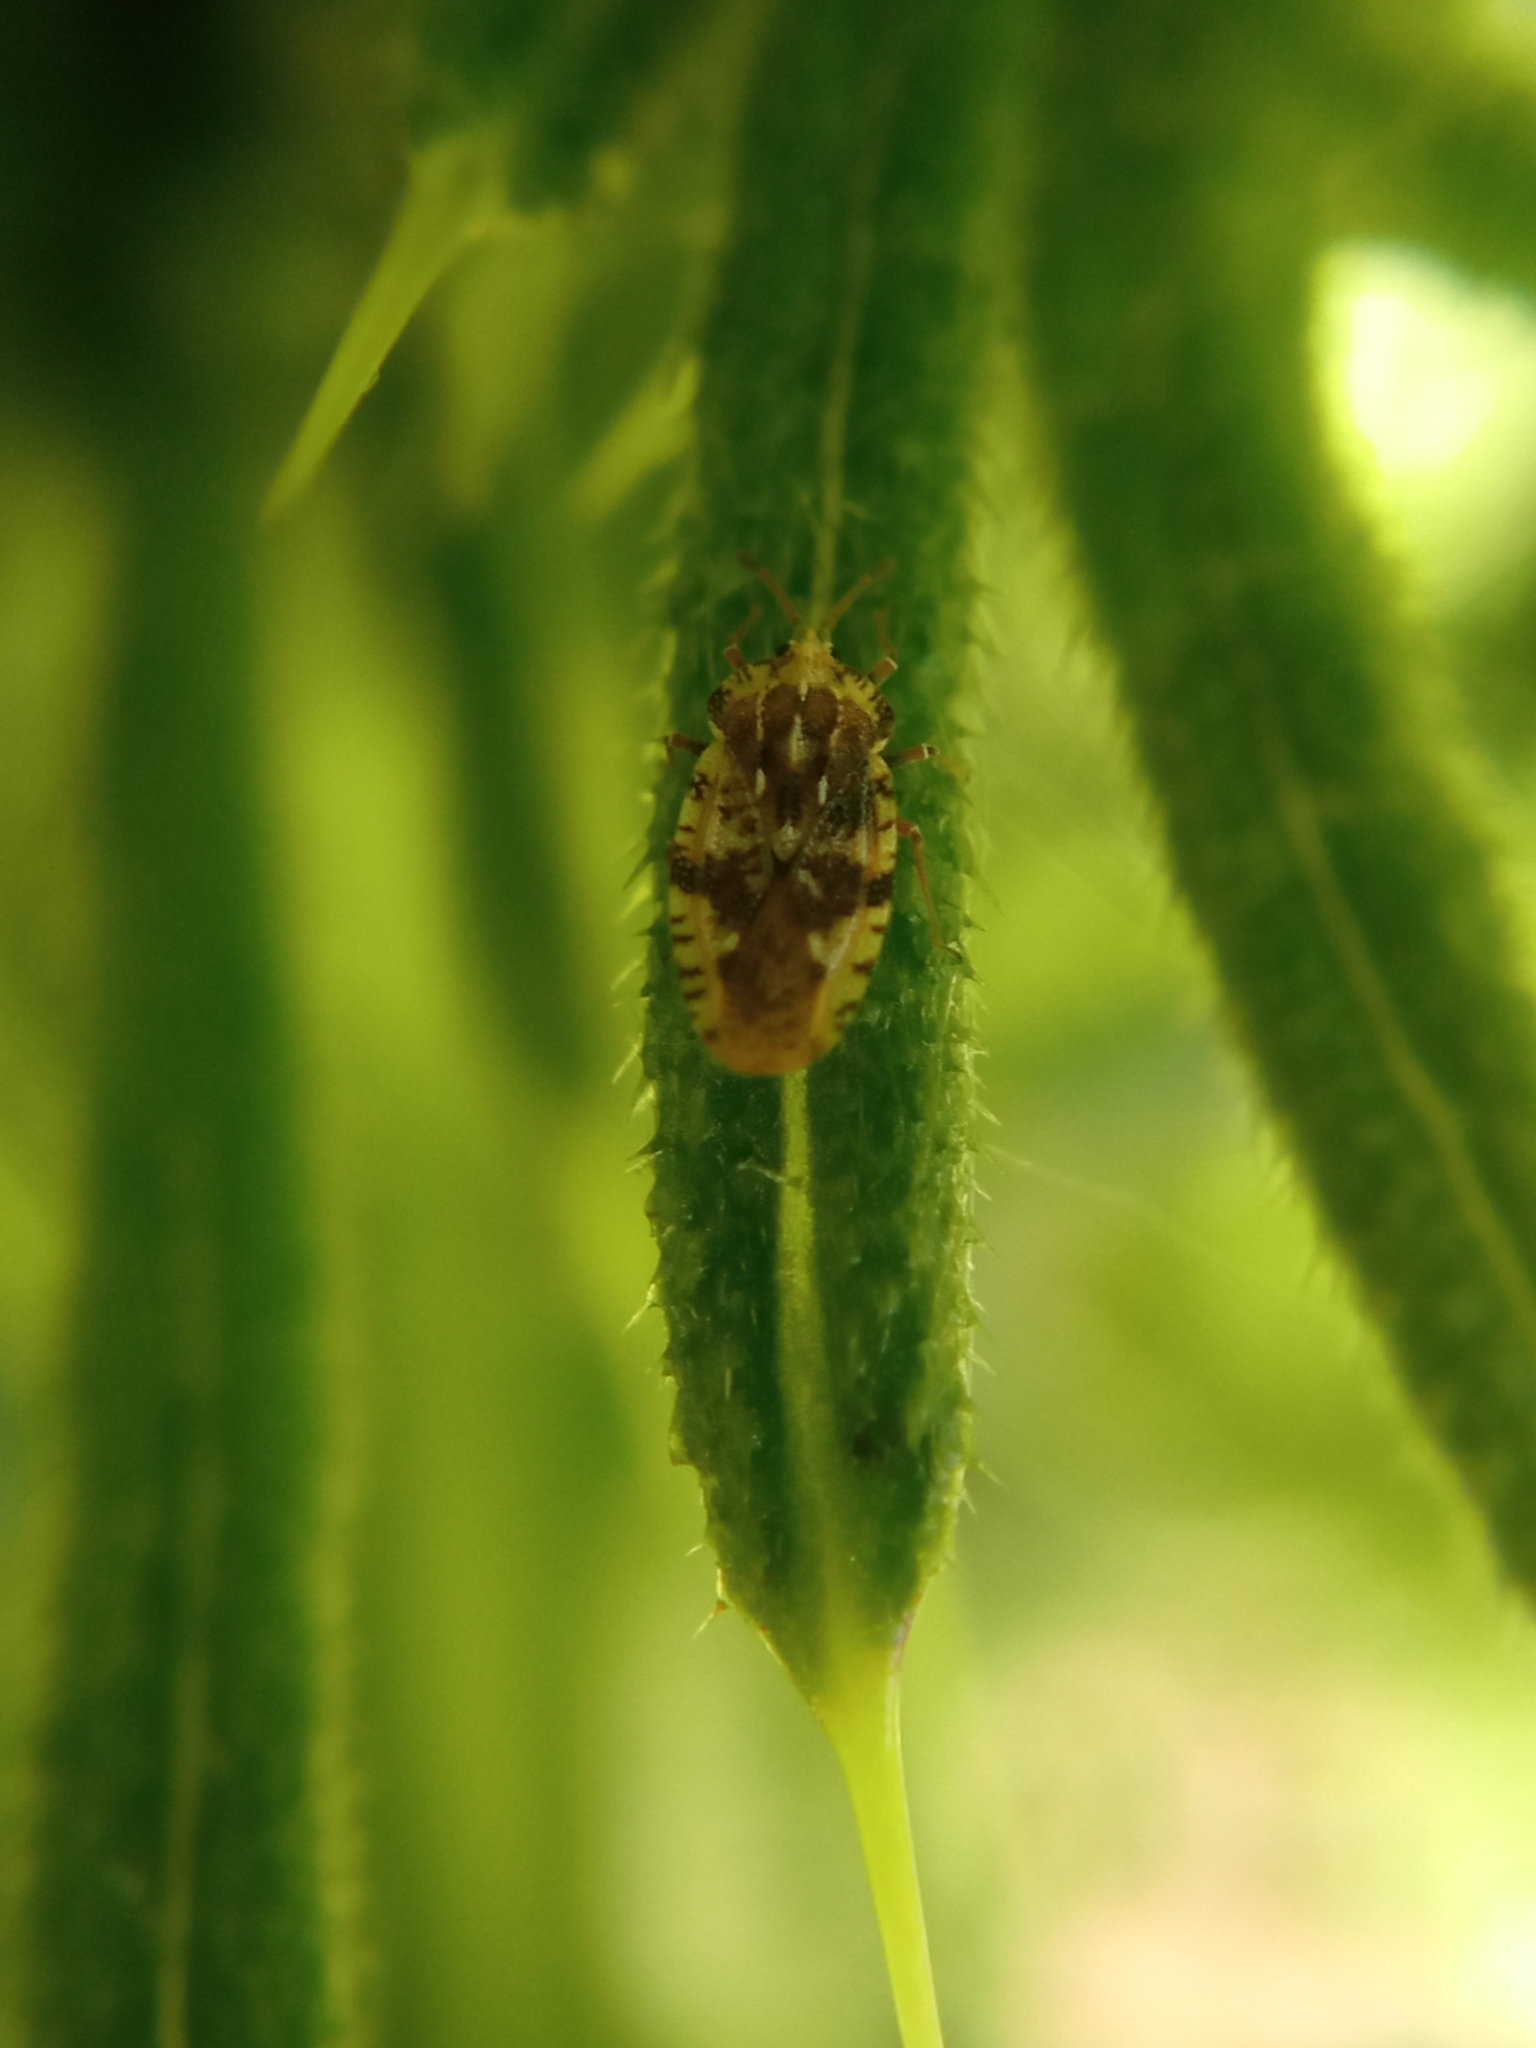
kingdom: Animalia
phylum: Arthropoda
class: Insecta
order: Hemiptera
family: Tingidae
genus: Tingis
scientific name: Tingis cardui
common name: Spear thistle lacebug
